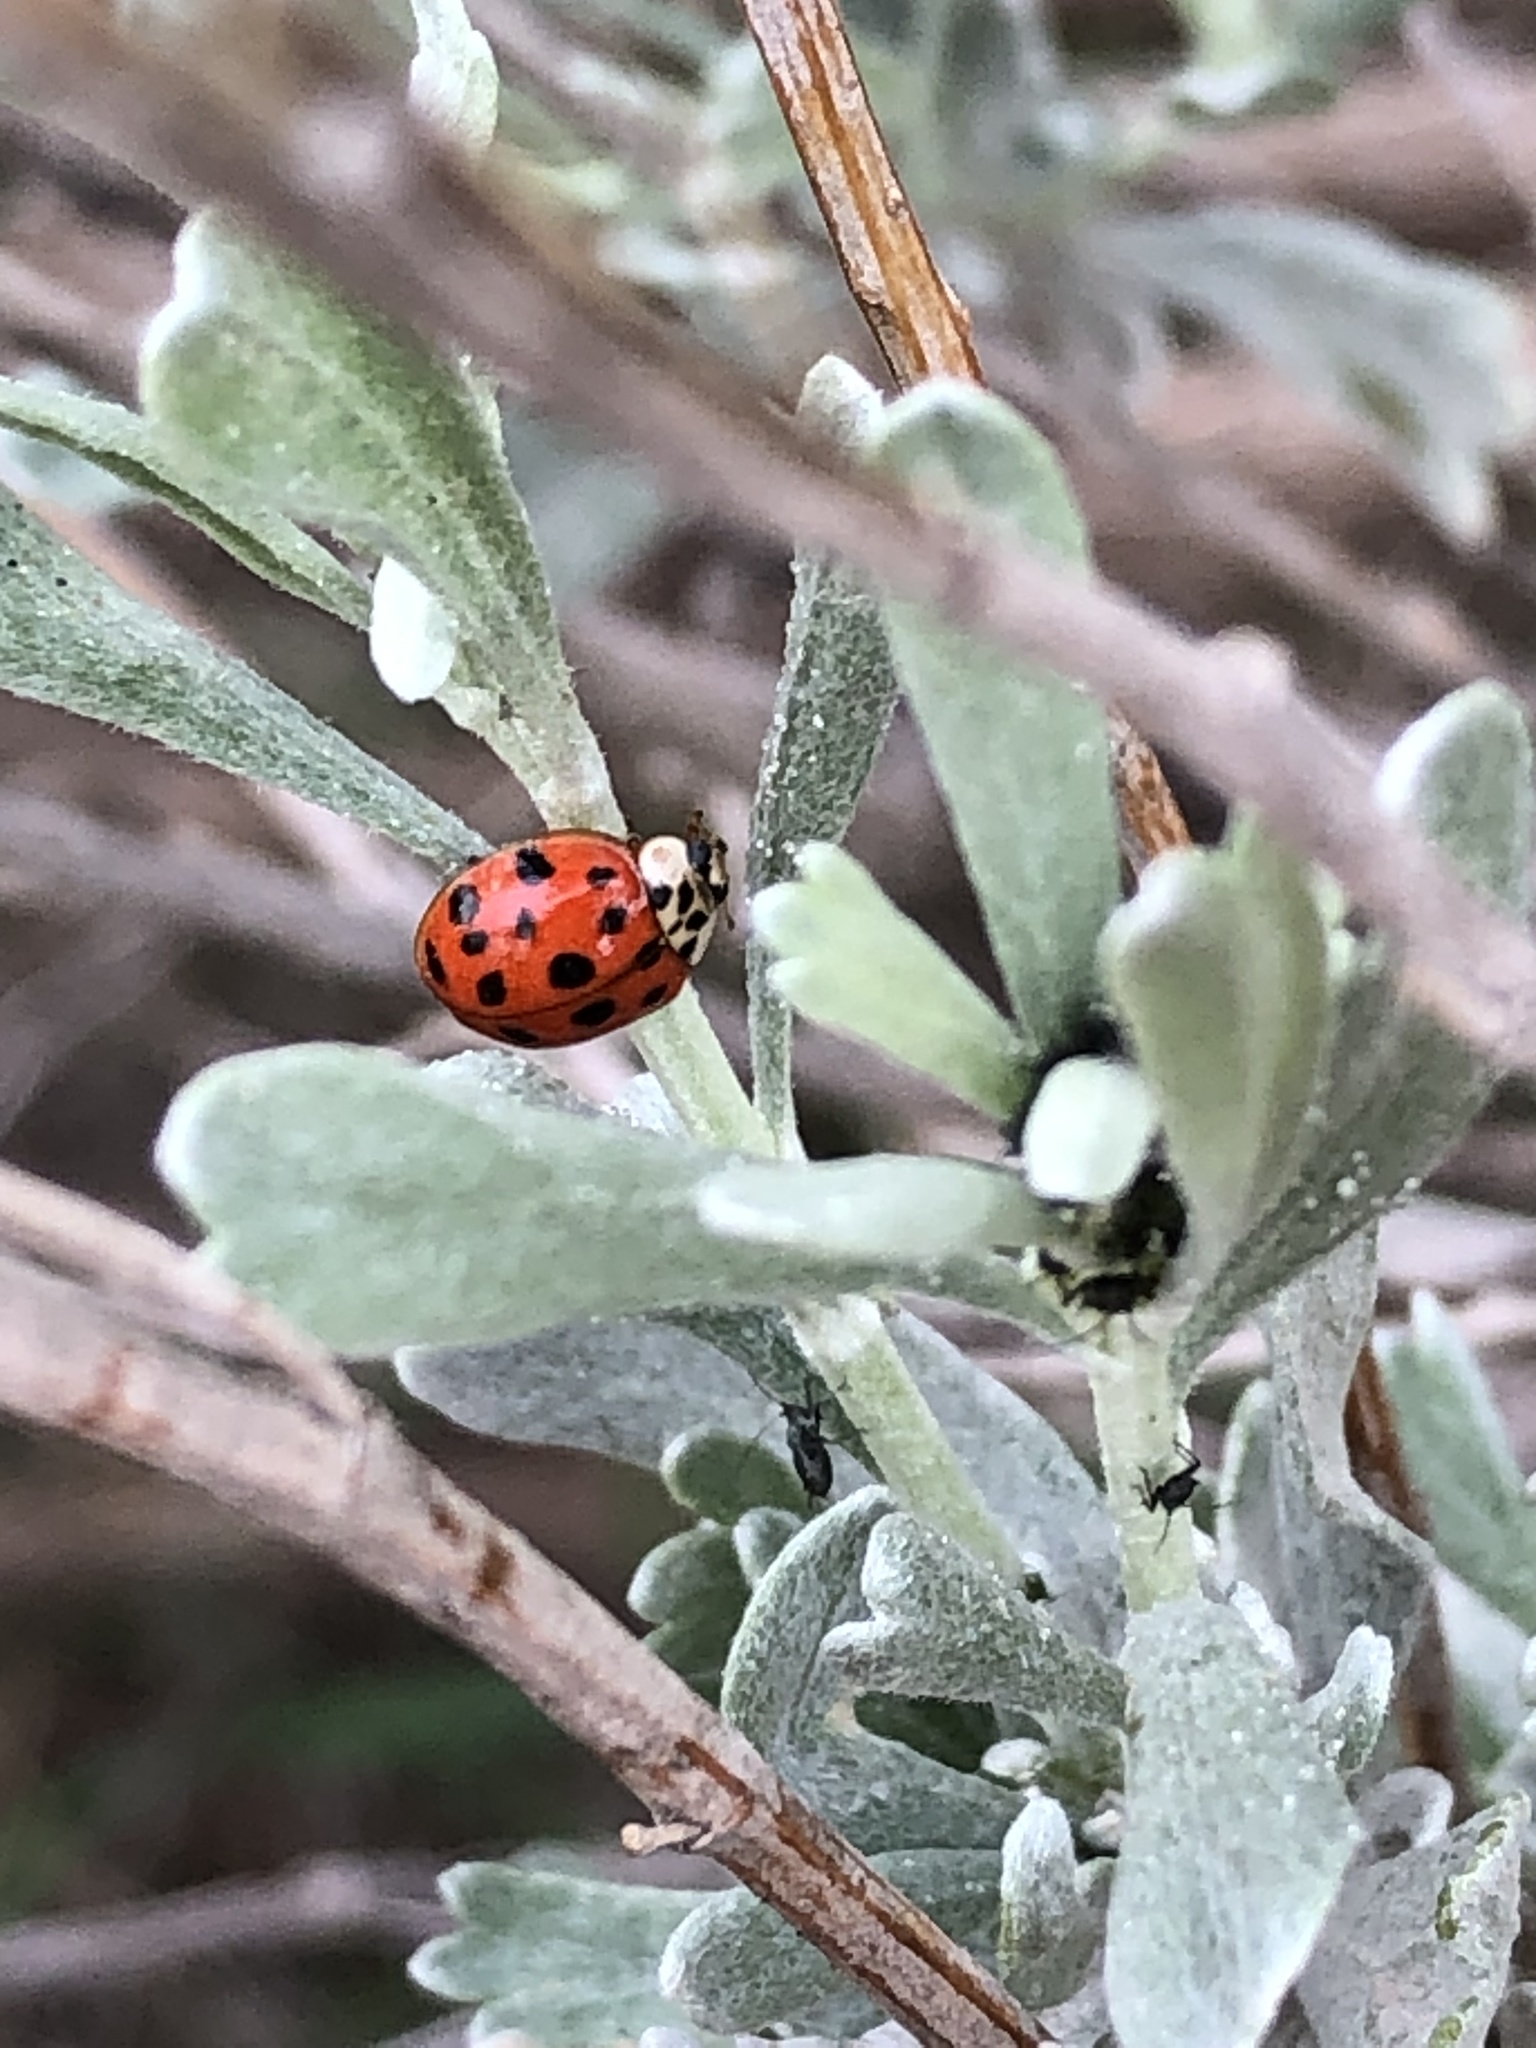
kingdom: Animalia
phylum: Arthropoda
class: Insecta
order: Coleoptera
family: Coccinellidae
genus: Harmonia
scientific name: Harmonia axyridis
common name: Harlequin ladybird
